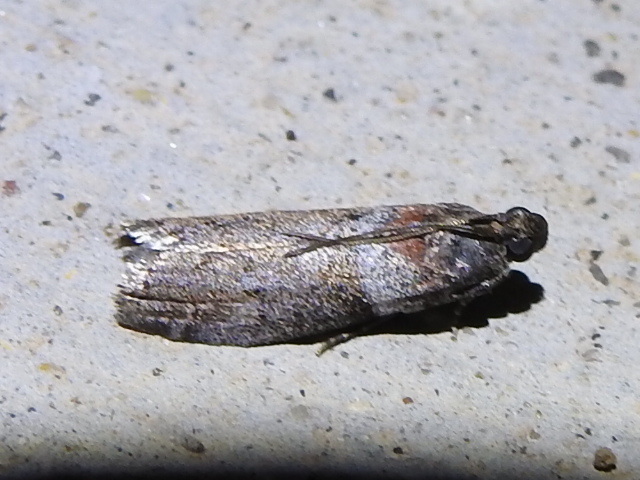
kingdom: Animalia
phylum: Arthropoda
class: Insecta
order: Lepidoptera
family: Pyralidae
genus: Sciota
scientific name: Sciota subfuscella
